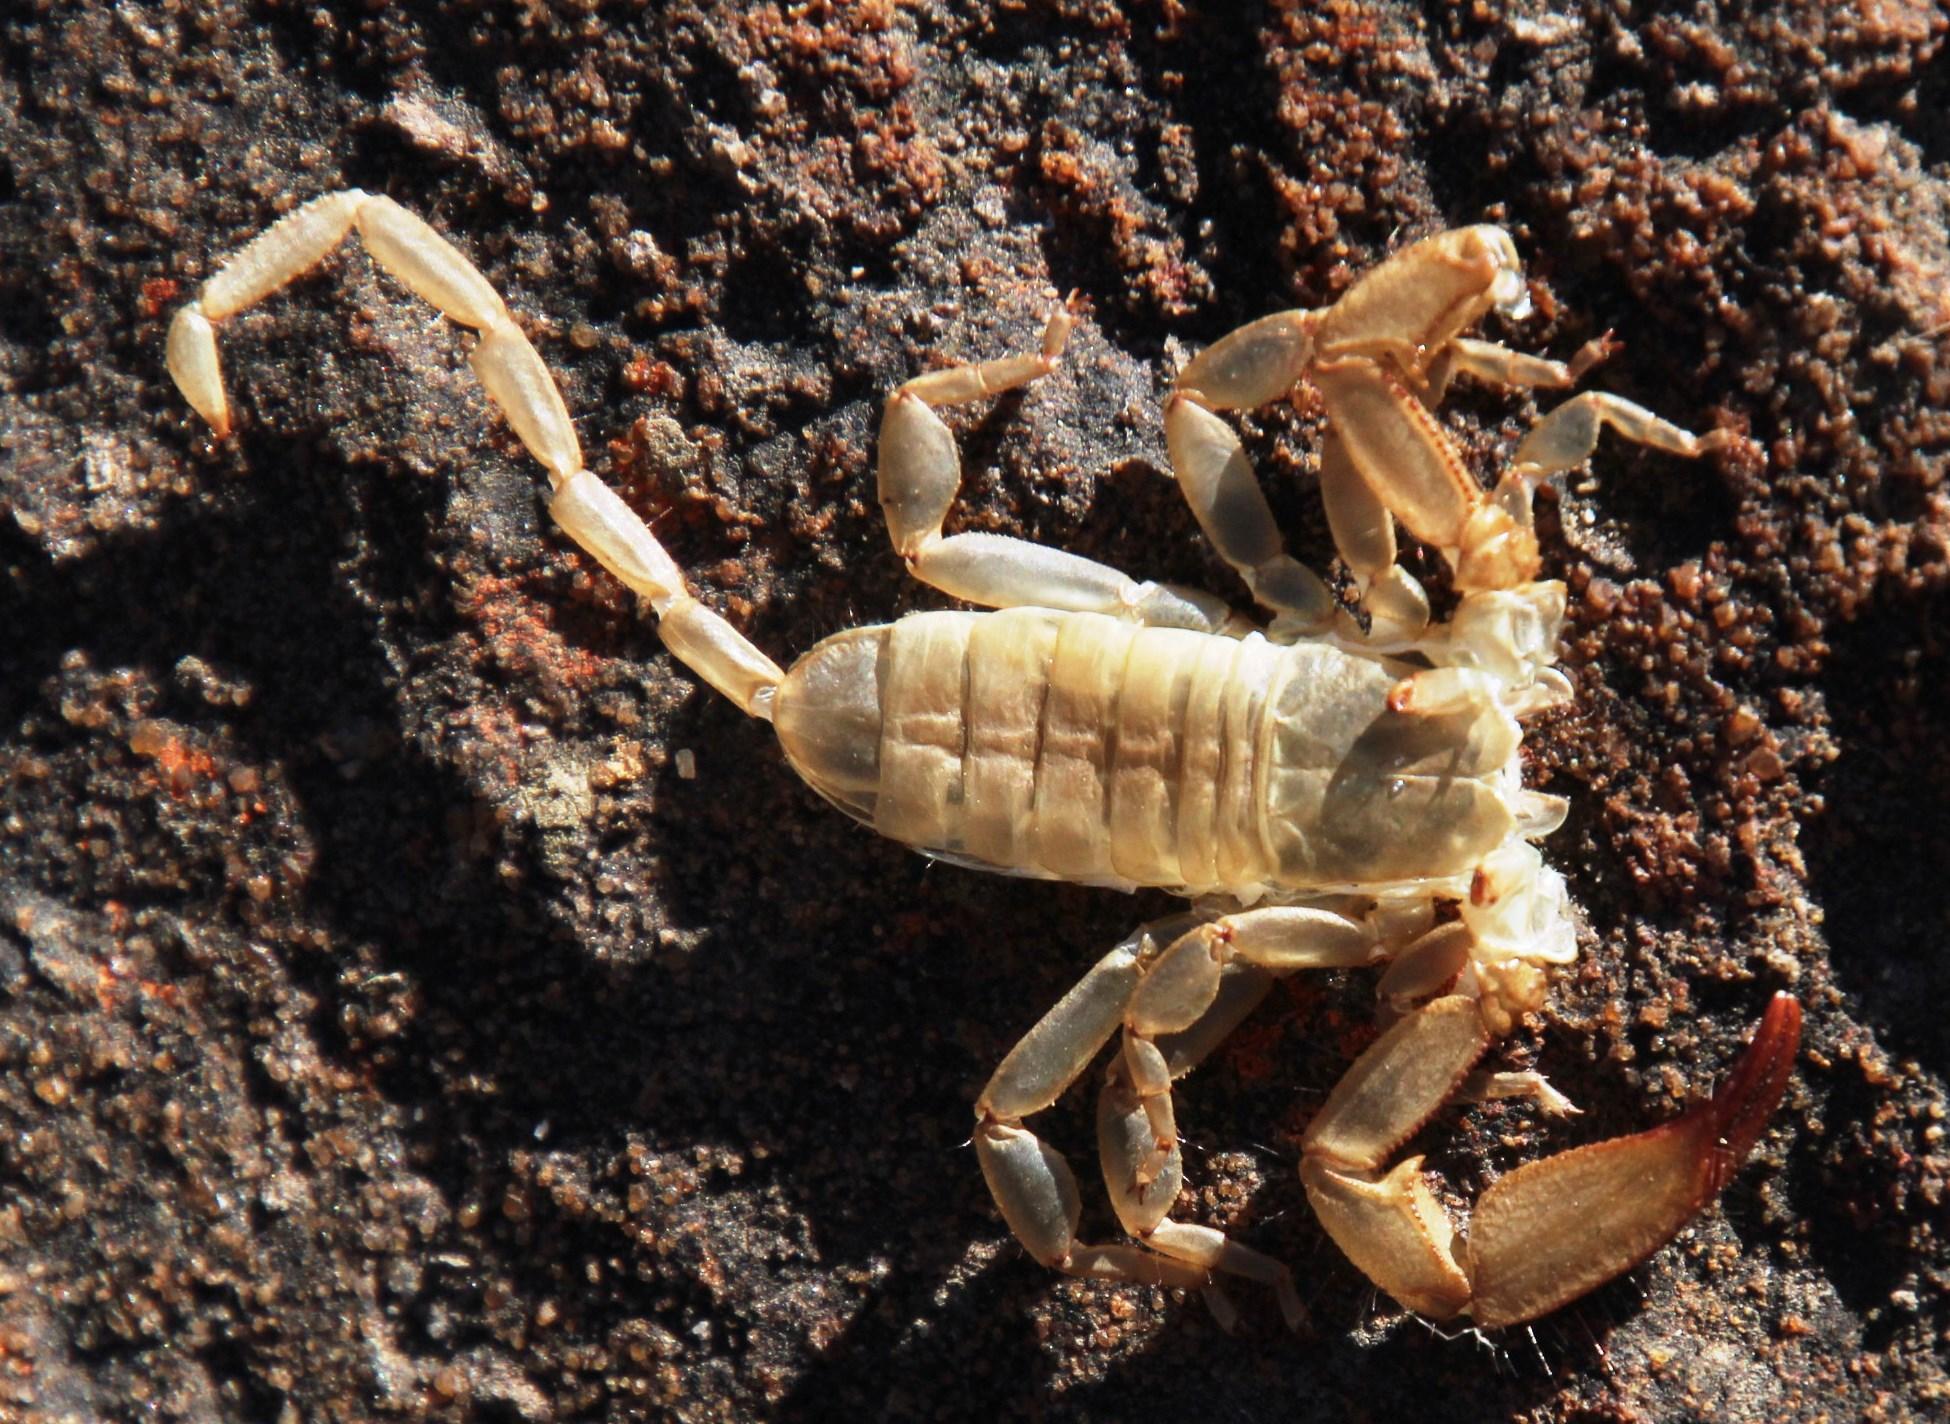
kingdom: Animalia
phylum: Arthropoda
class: Arachnida
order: Scorpiones
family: Hormuridae
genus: Hadogenes
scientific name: Hadogenes minor
